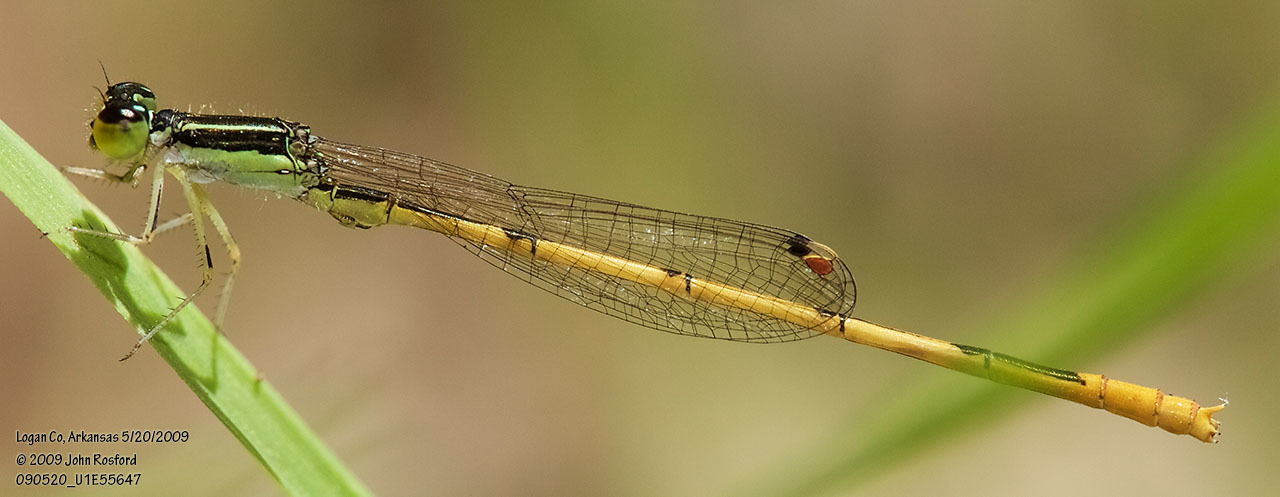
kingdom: Animalia
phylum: Arthropoda
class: Insecta
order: Odonata
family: Coenagrionidae
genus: Ischnura
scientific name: Ischnura hastata
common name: Citrine forktail
